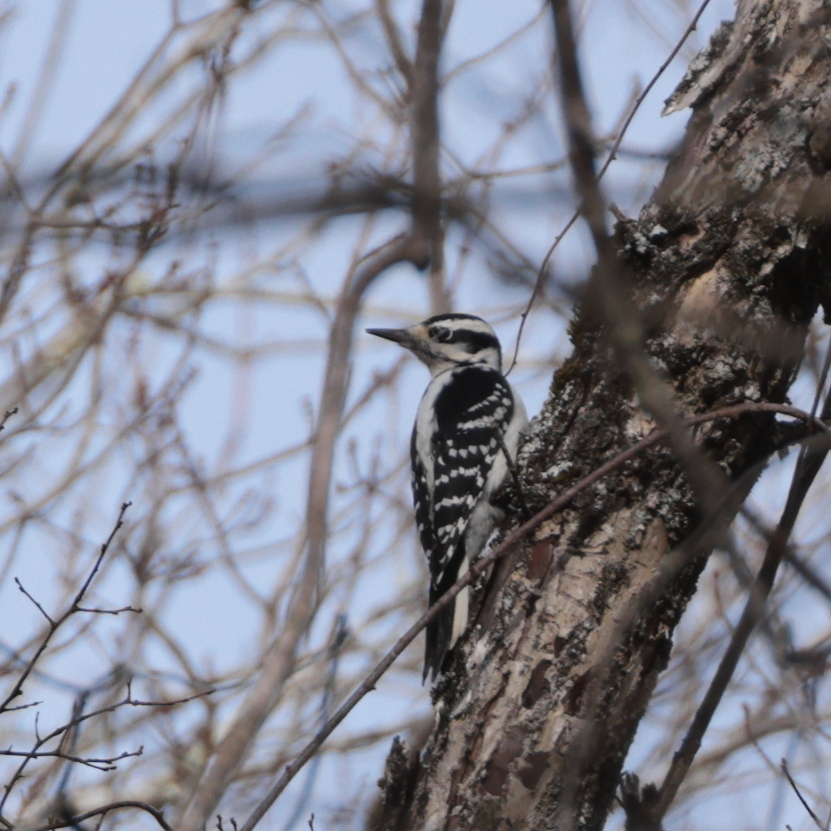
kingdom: Animalia
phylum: Chordata
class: Aves
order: Piciformes
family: Picidae
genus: Leuconotopicus
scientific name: Leuconotopicus villosus
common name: Hairy woodpecker
